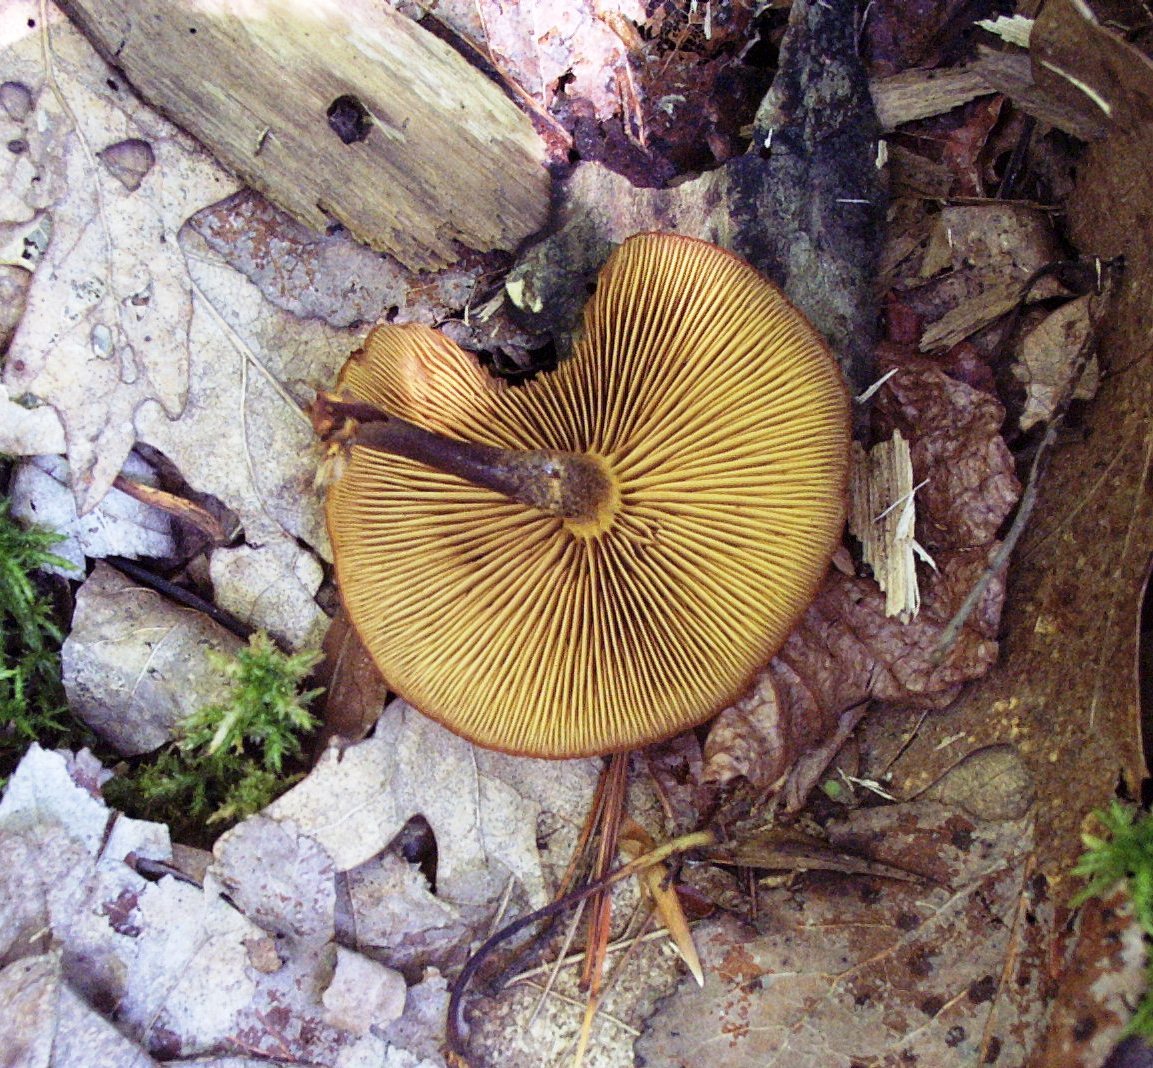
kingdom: Fungi
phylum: Basidiomycota
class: Agaricomycetes
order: Agaricales
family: Hymenogastraceae
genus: Galerina
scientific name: Galerina marginata
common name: Funeral bell
